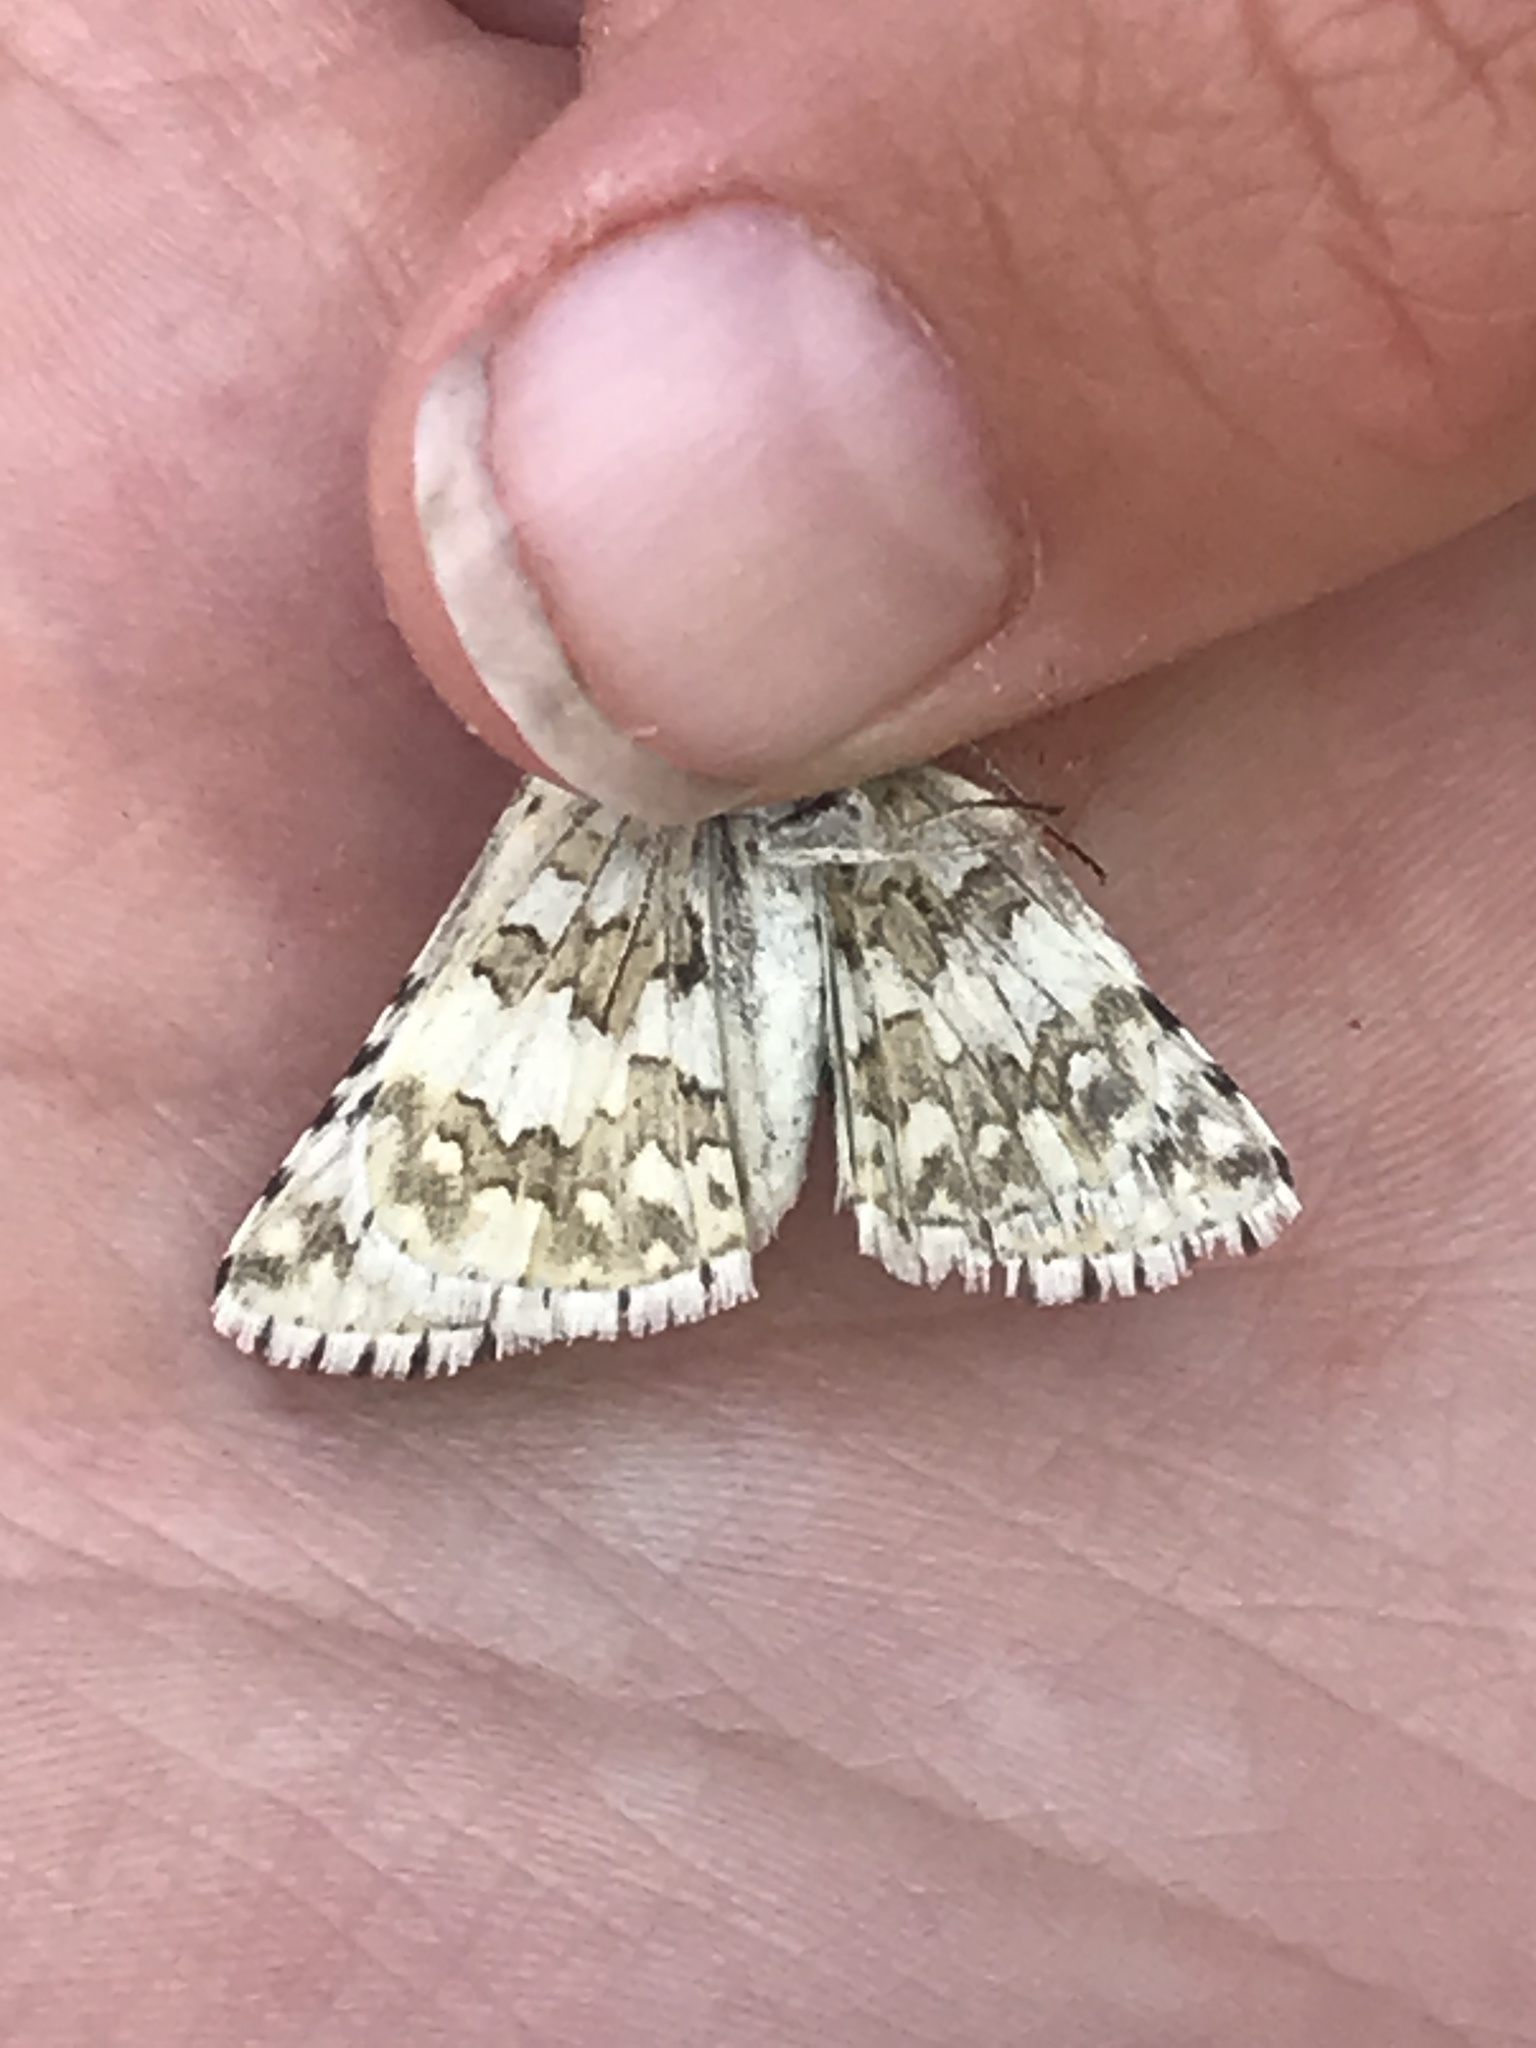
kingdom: Animalia
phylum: Arthropoda
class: Insecta
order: Lepidoptera
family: Hesperiidae
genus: Burnsius
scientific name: Burnsius communis
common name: Common checkered-skipper
